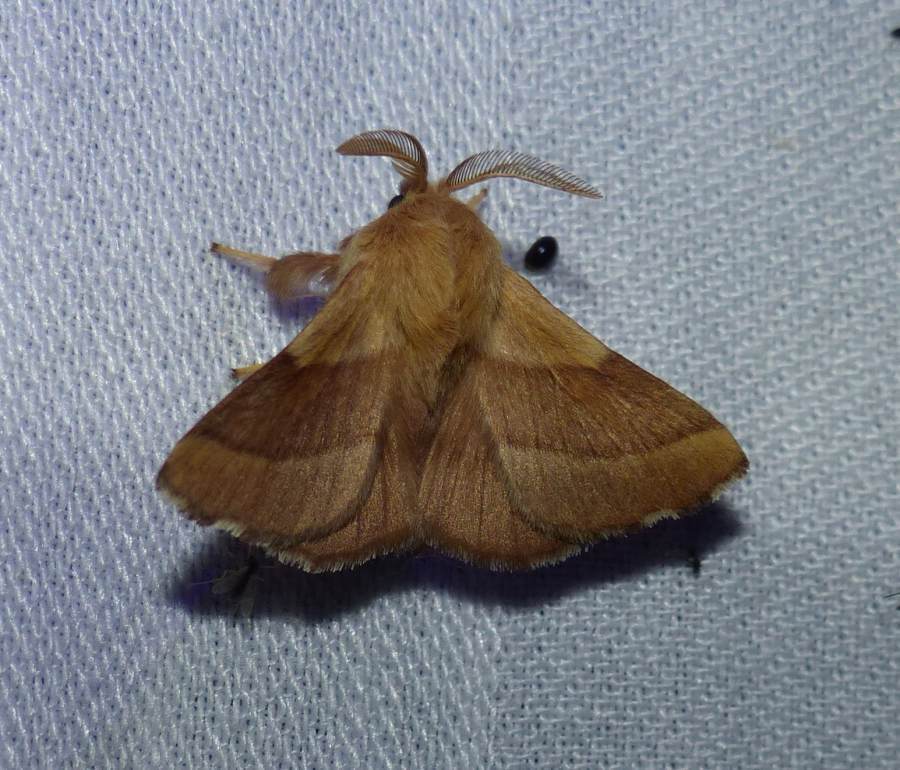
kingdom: Animalia
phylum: Arthropoda
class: Insecta
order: Lepidoptera
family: Lasiocampidae
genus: Malacosoma
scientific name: Malacosoma disstria
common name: Forest tent caterpillar
